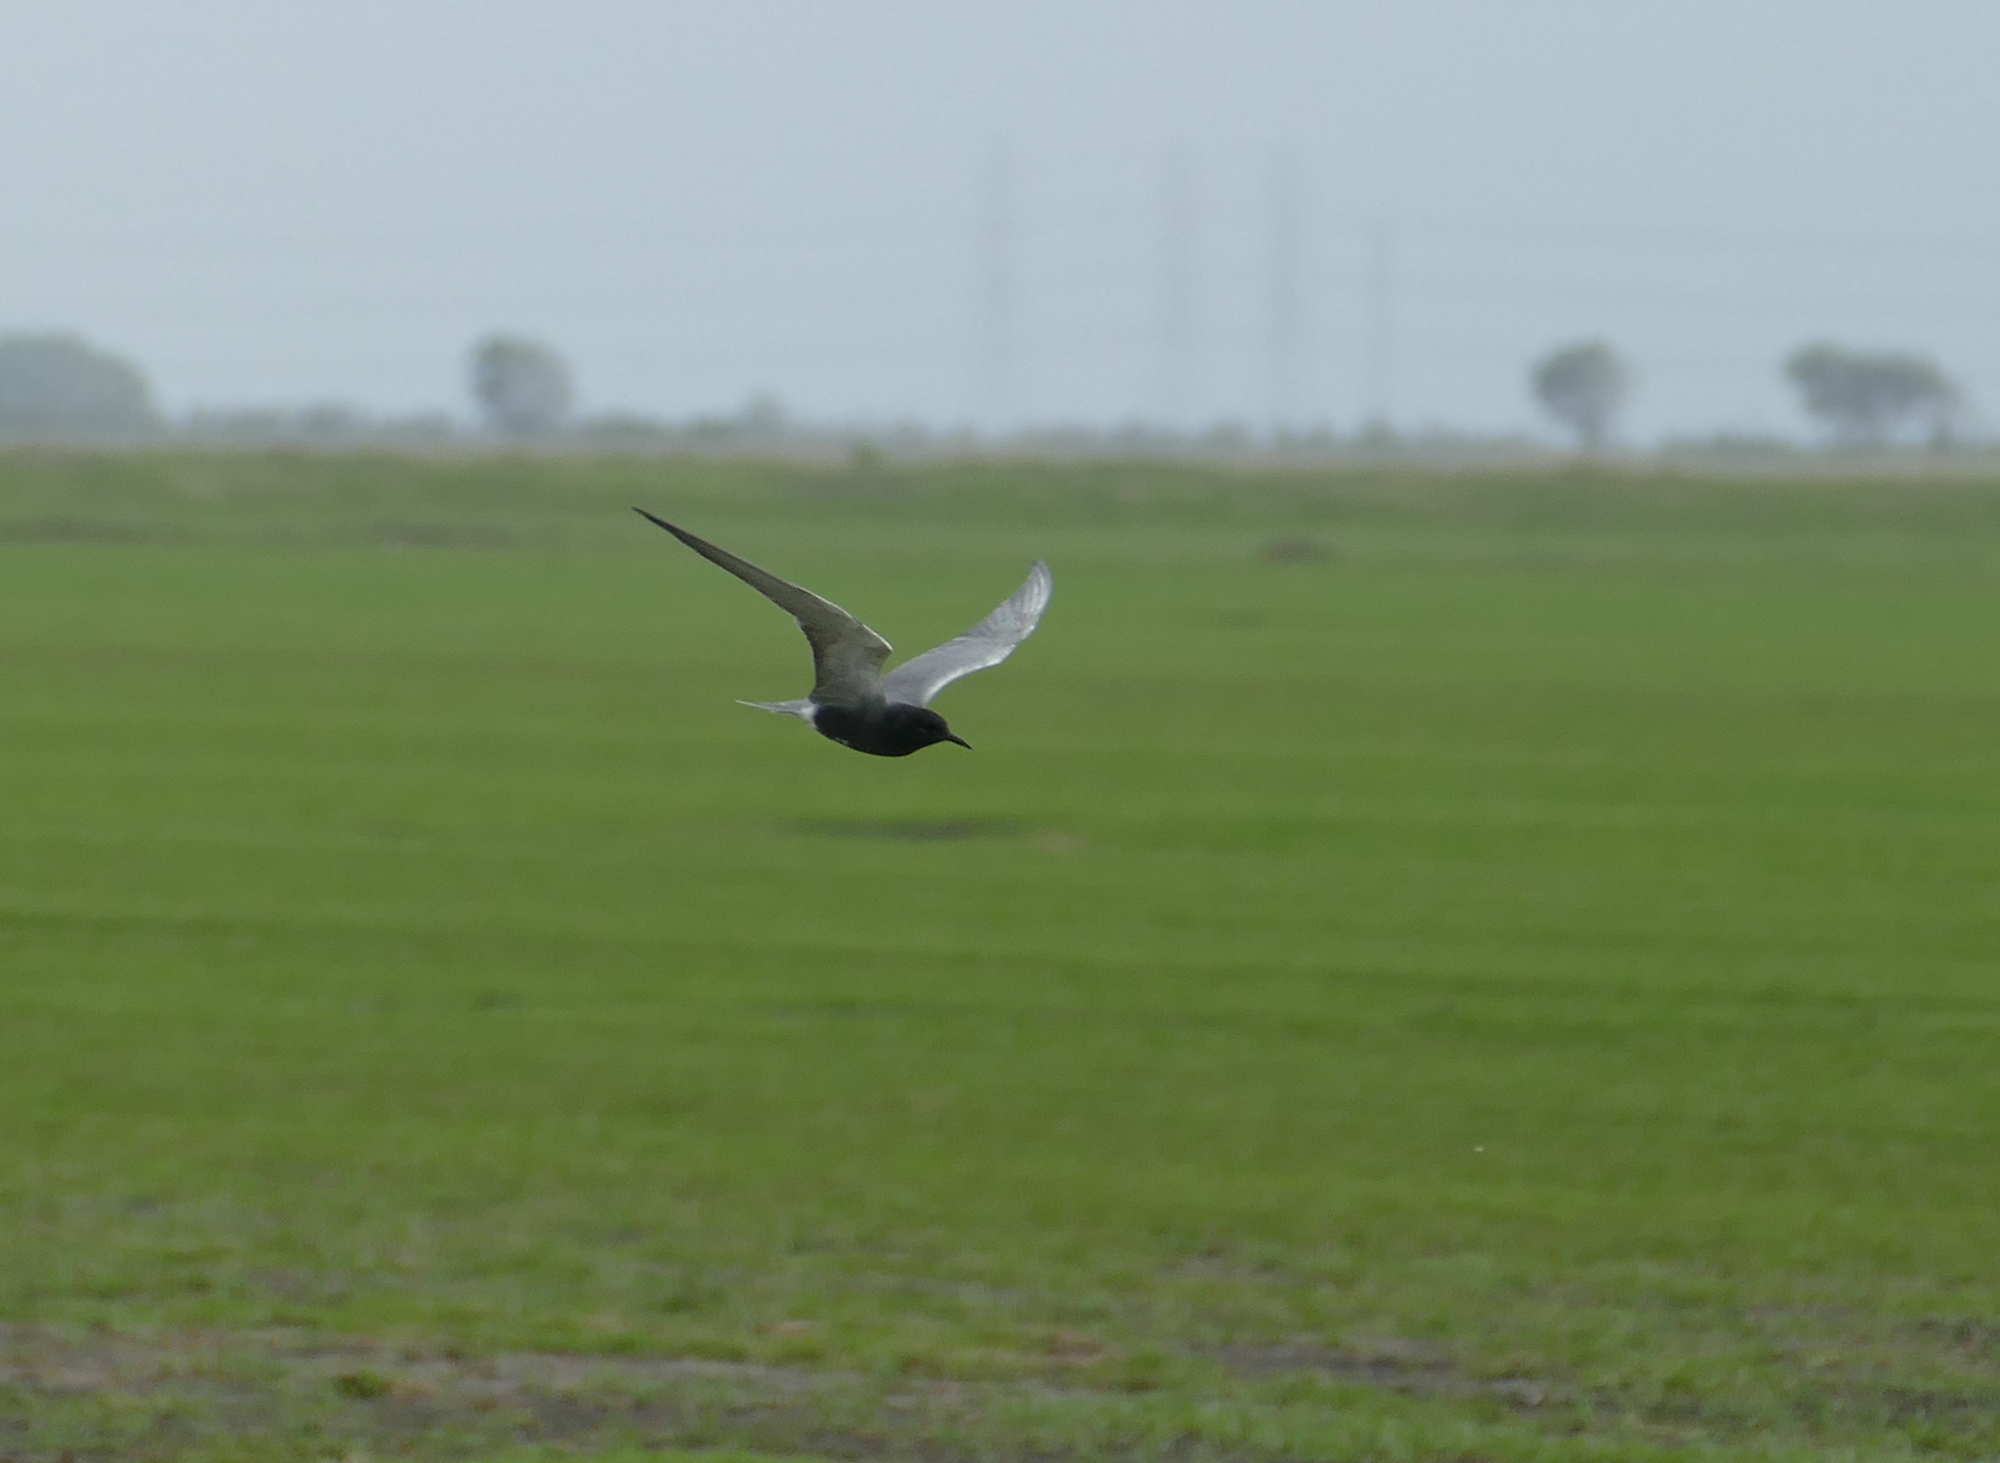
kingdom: Animalia
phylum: Chordata
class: Aves
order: Charadriiformes
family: Laridae
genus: Chlidonias
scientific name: Chlidonias niger
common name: Black tern
